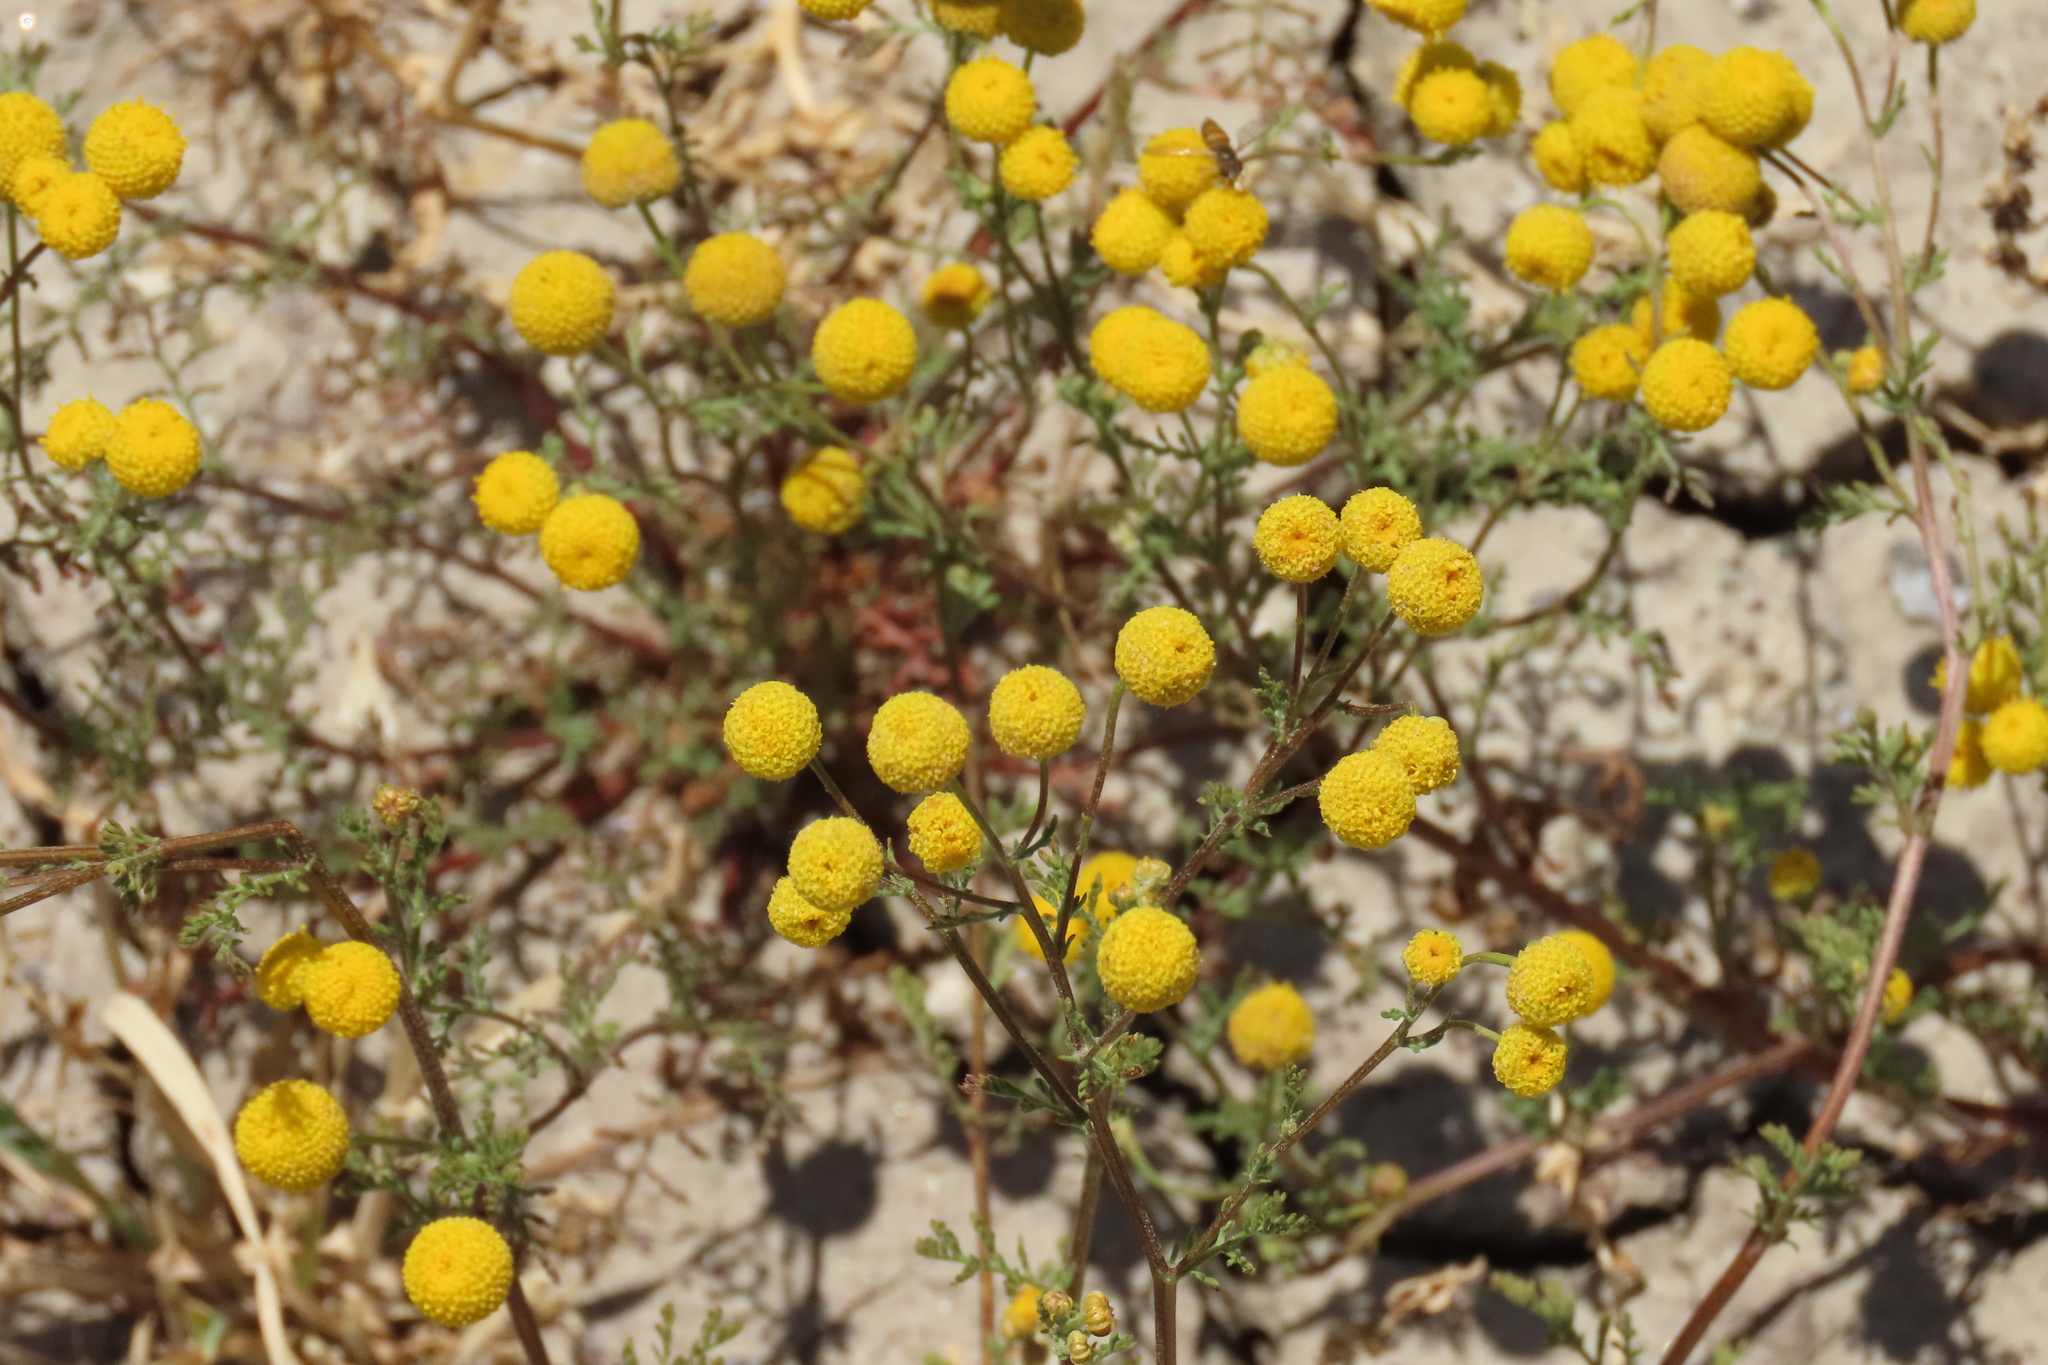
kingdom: Plantae
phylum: Tracheophyta
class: Magnoliopsida
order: Asterales
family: Asteraceae
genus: Oncosiphon
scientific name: Oncosiphon pilulifer
